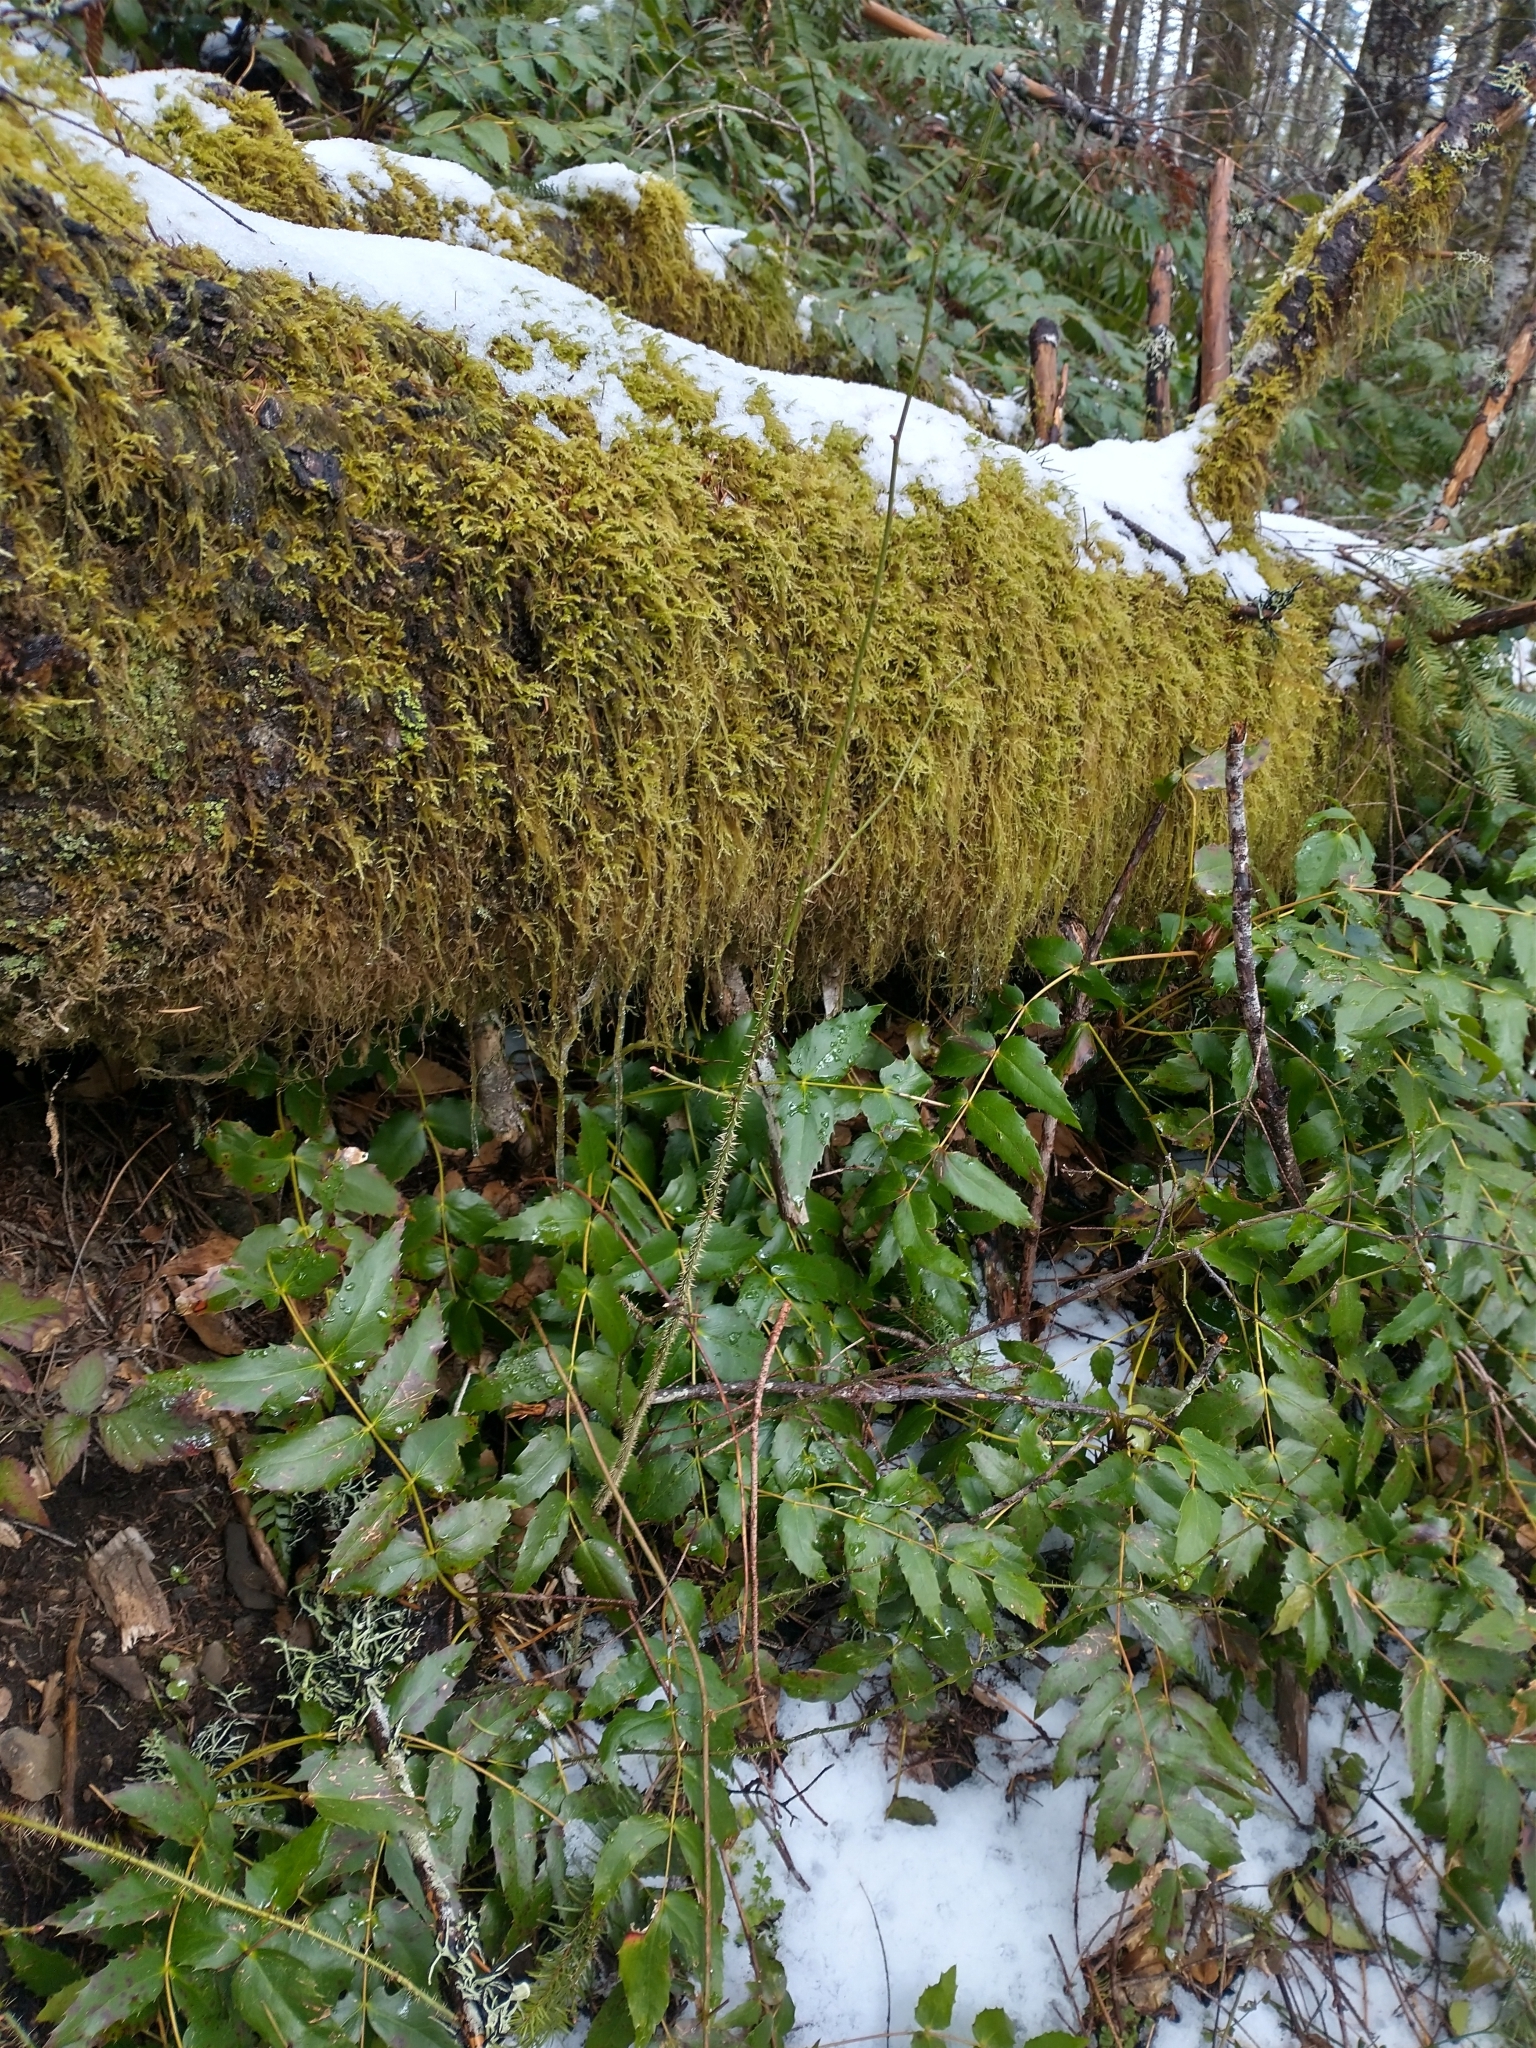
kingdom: Plantae
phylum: Tracheophyta
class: Magnoliopsida
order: Rosales
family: Rosaceae
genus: Rosa
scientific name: Rosa gymnocarpa
